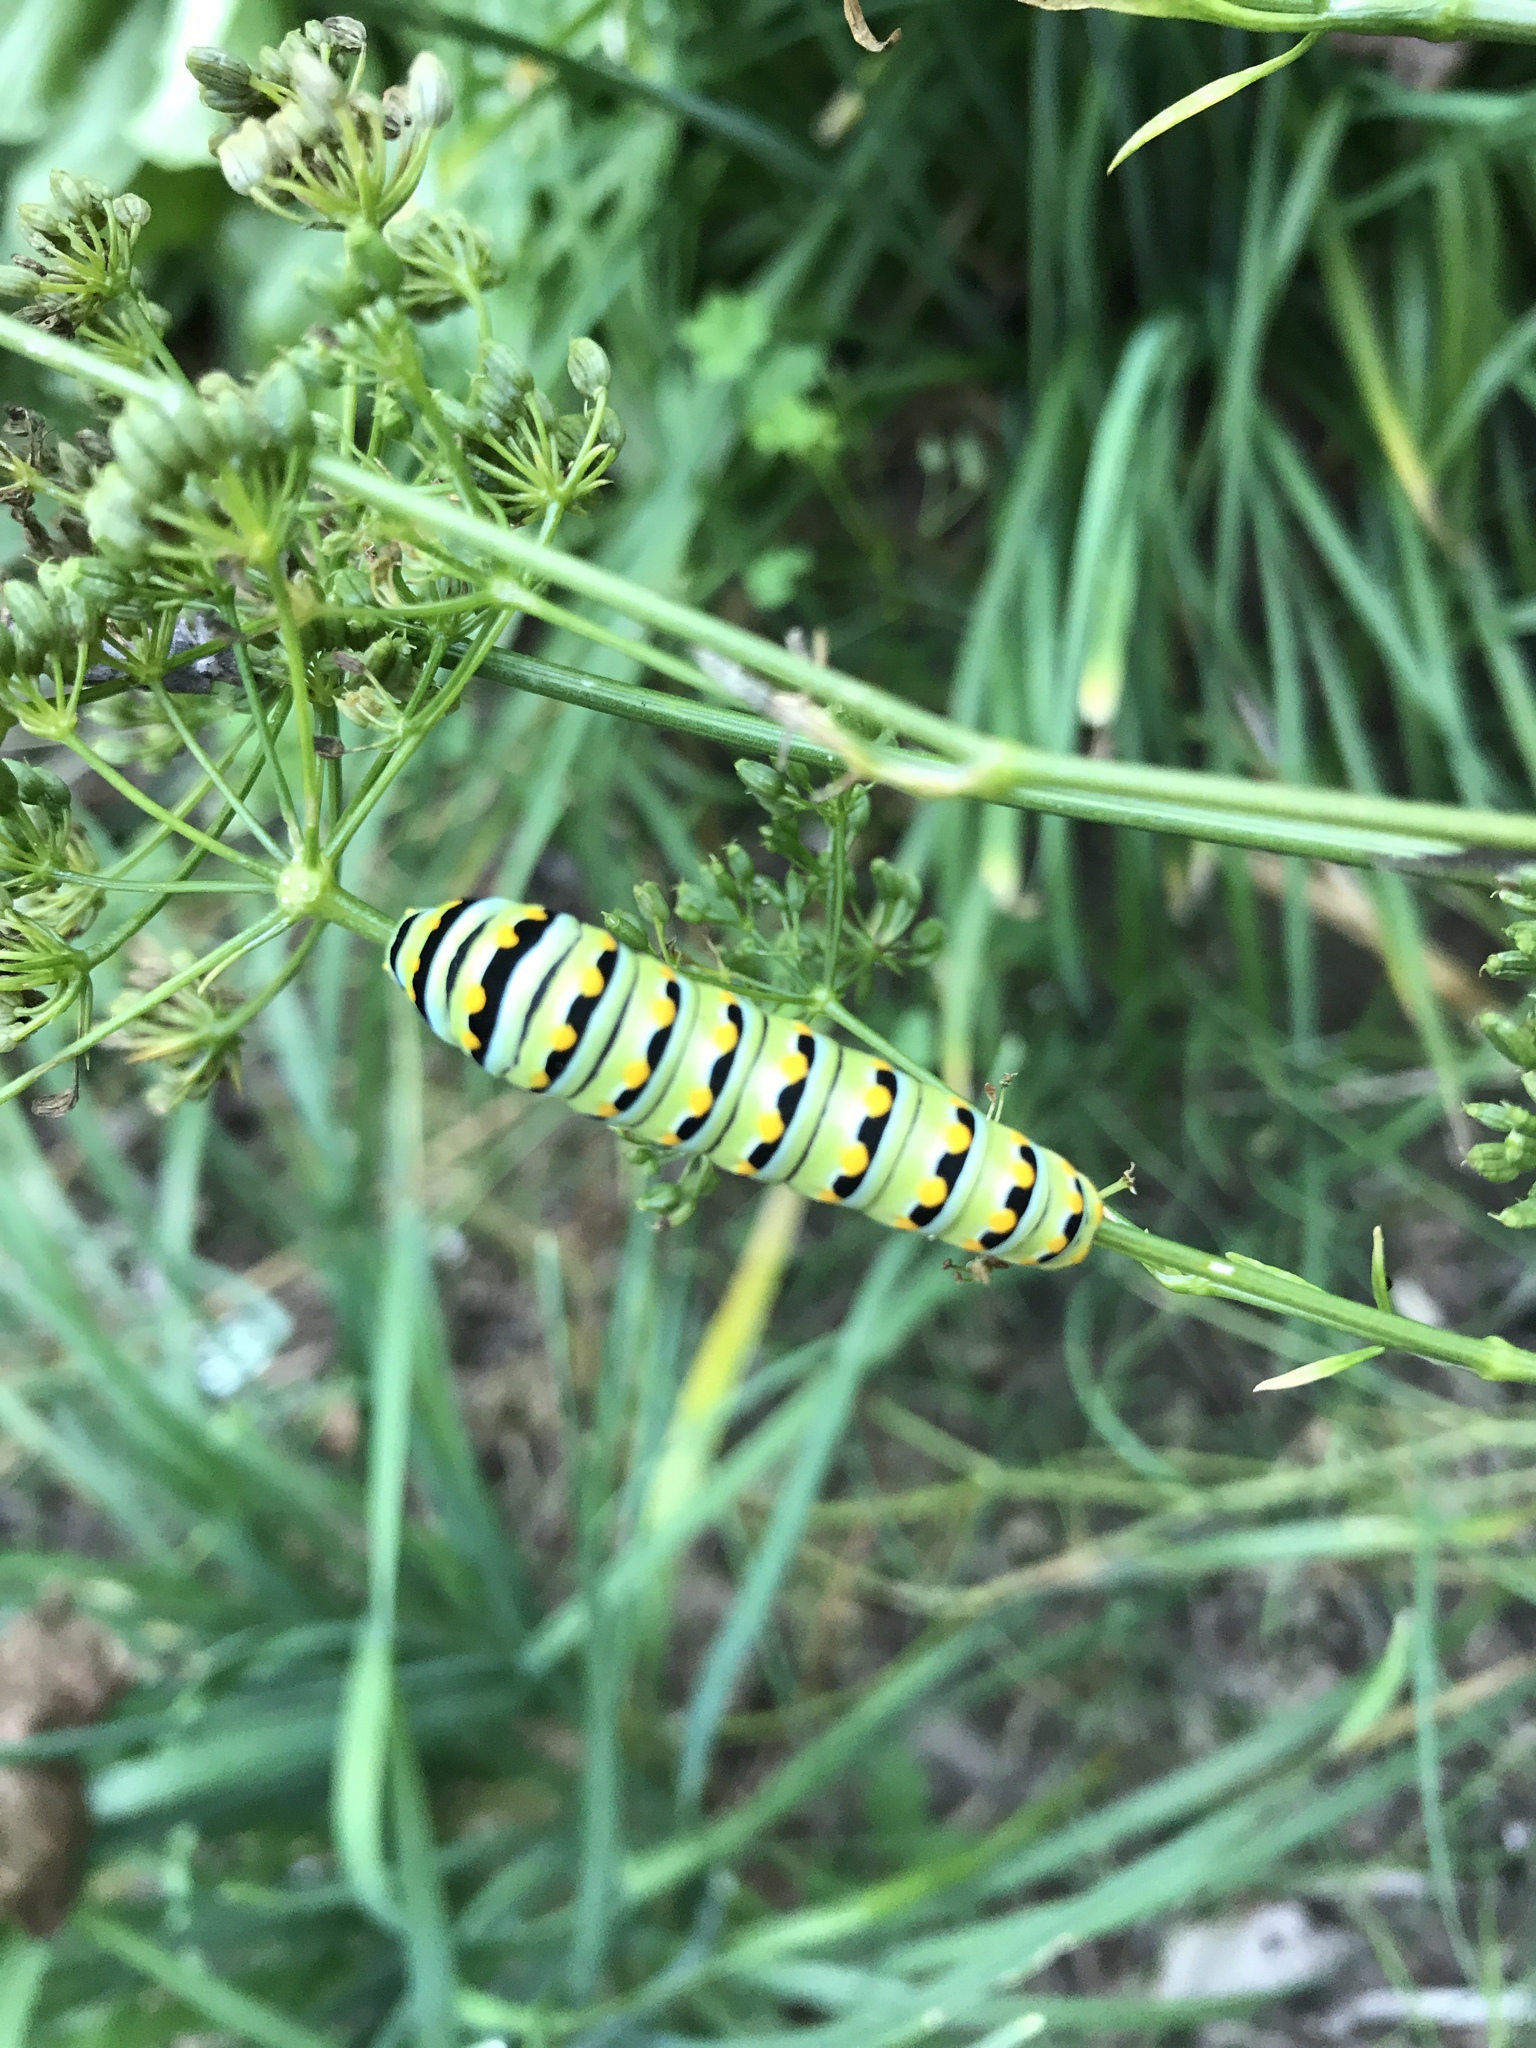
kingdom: Animalia
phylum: Arthropoda
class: Insecta
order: Lepidoptera
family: Papilionidae
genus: Papilio
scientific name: Papilio polyxenes
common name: Black swallowtail
